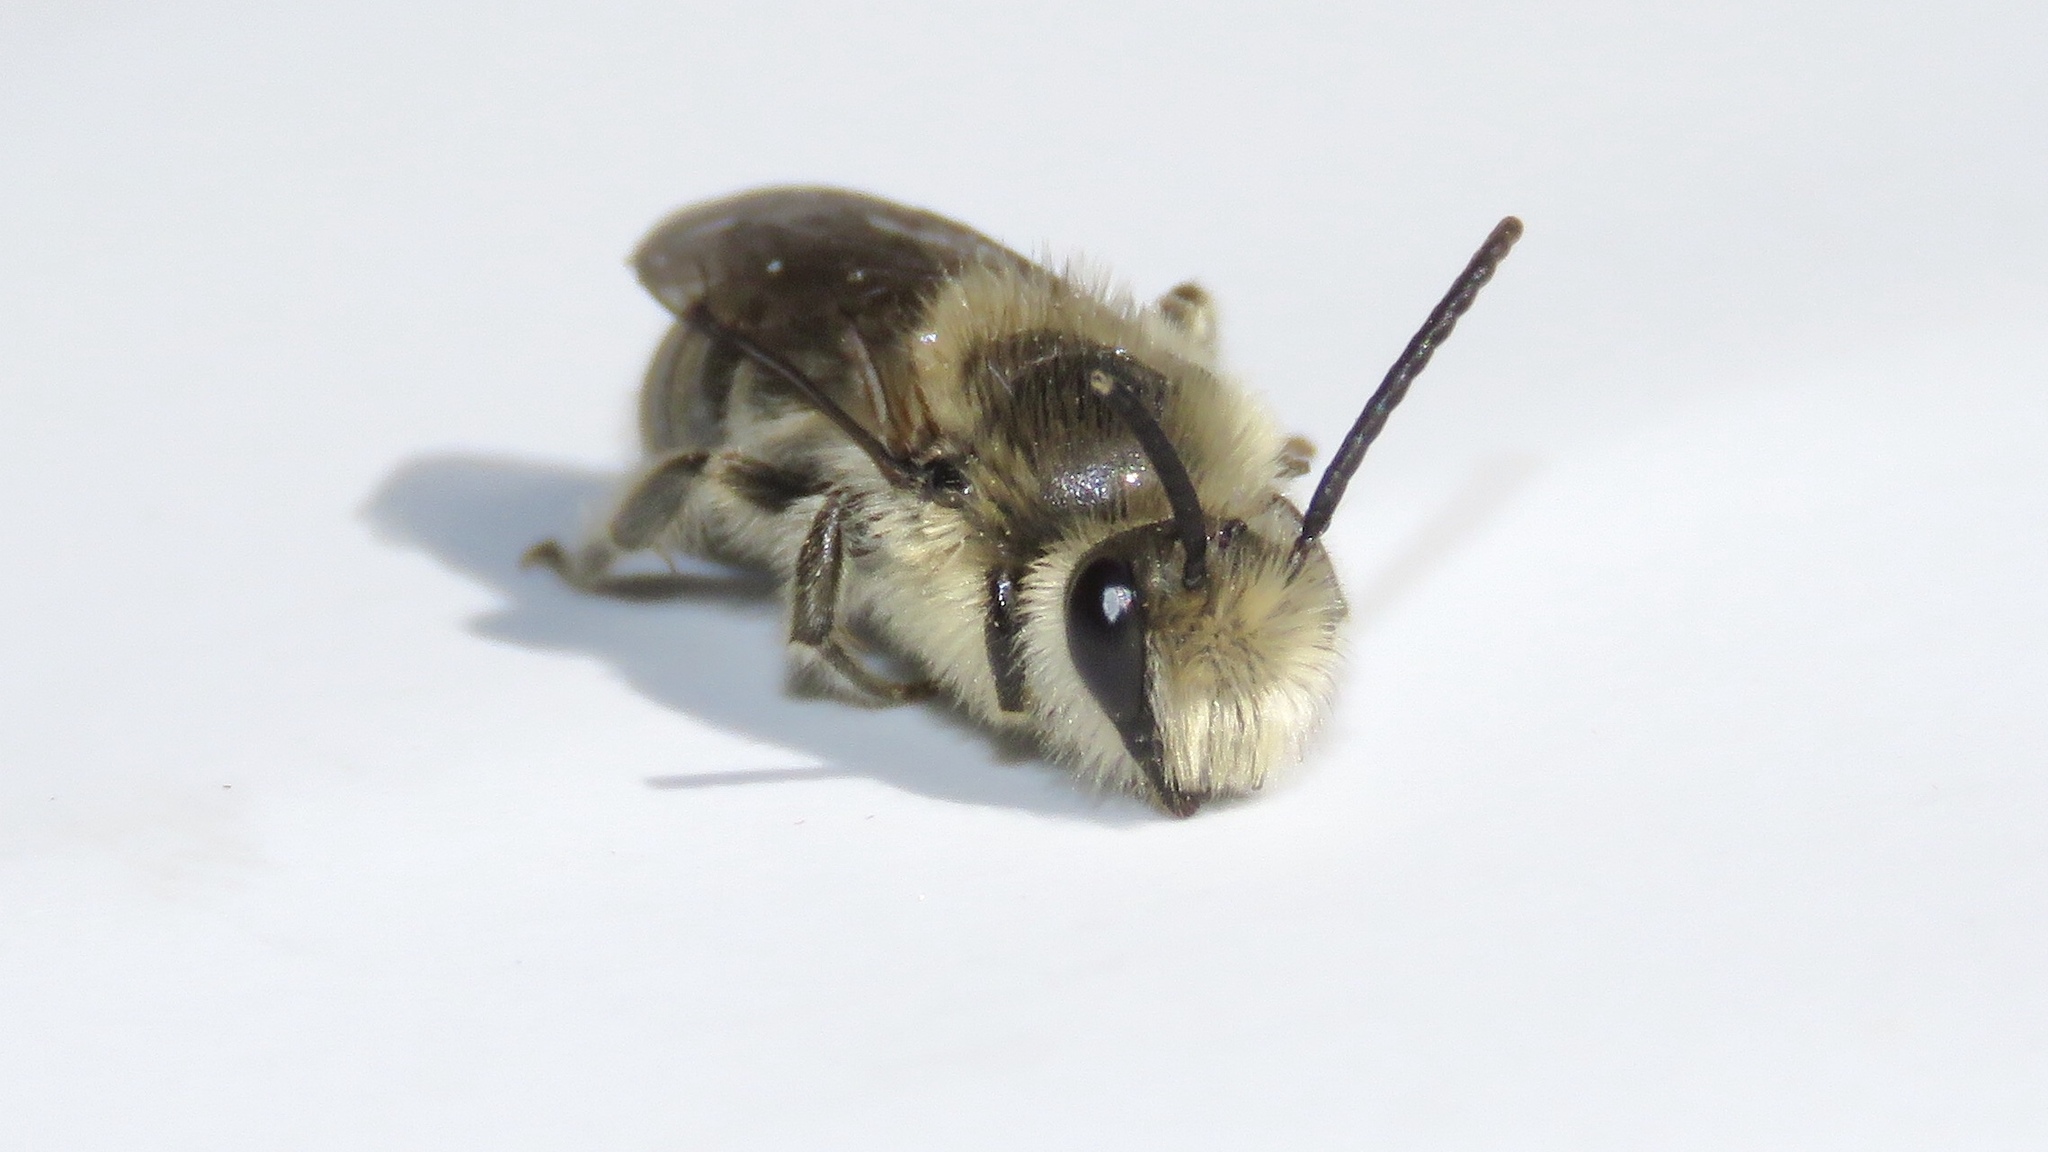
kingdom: Animalia
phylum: Arthropoda
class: Insecta
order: Hymenoptera
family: Colletidae
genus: Colletes
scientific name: Colletes inaequalis
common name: Unequal cellophane bee
